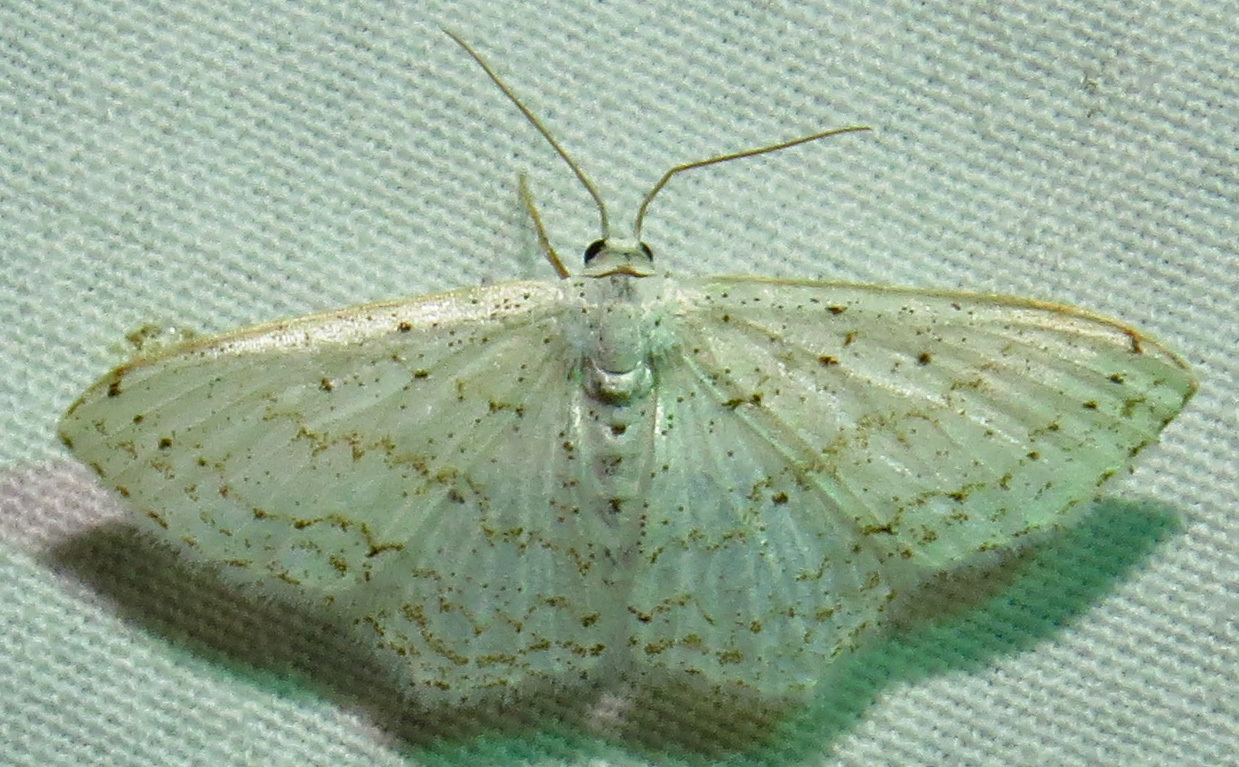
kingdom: Animalia
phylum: Arthropoda
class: Insecta
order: Lepidoptera
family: Geometridae
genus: Idaea
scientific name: Idaea tacturata
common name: Dot-lined wave
